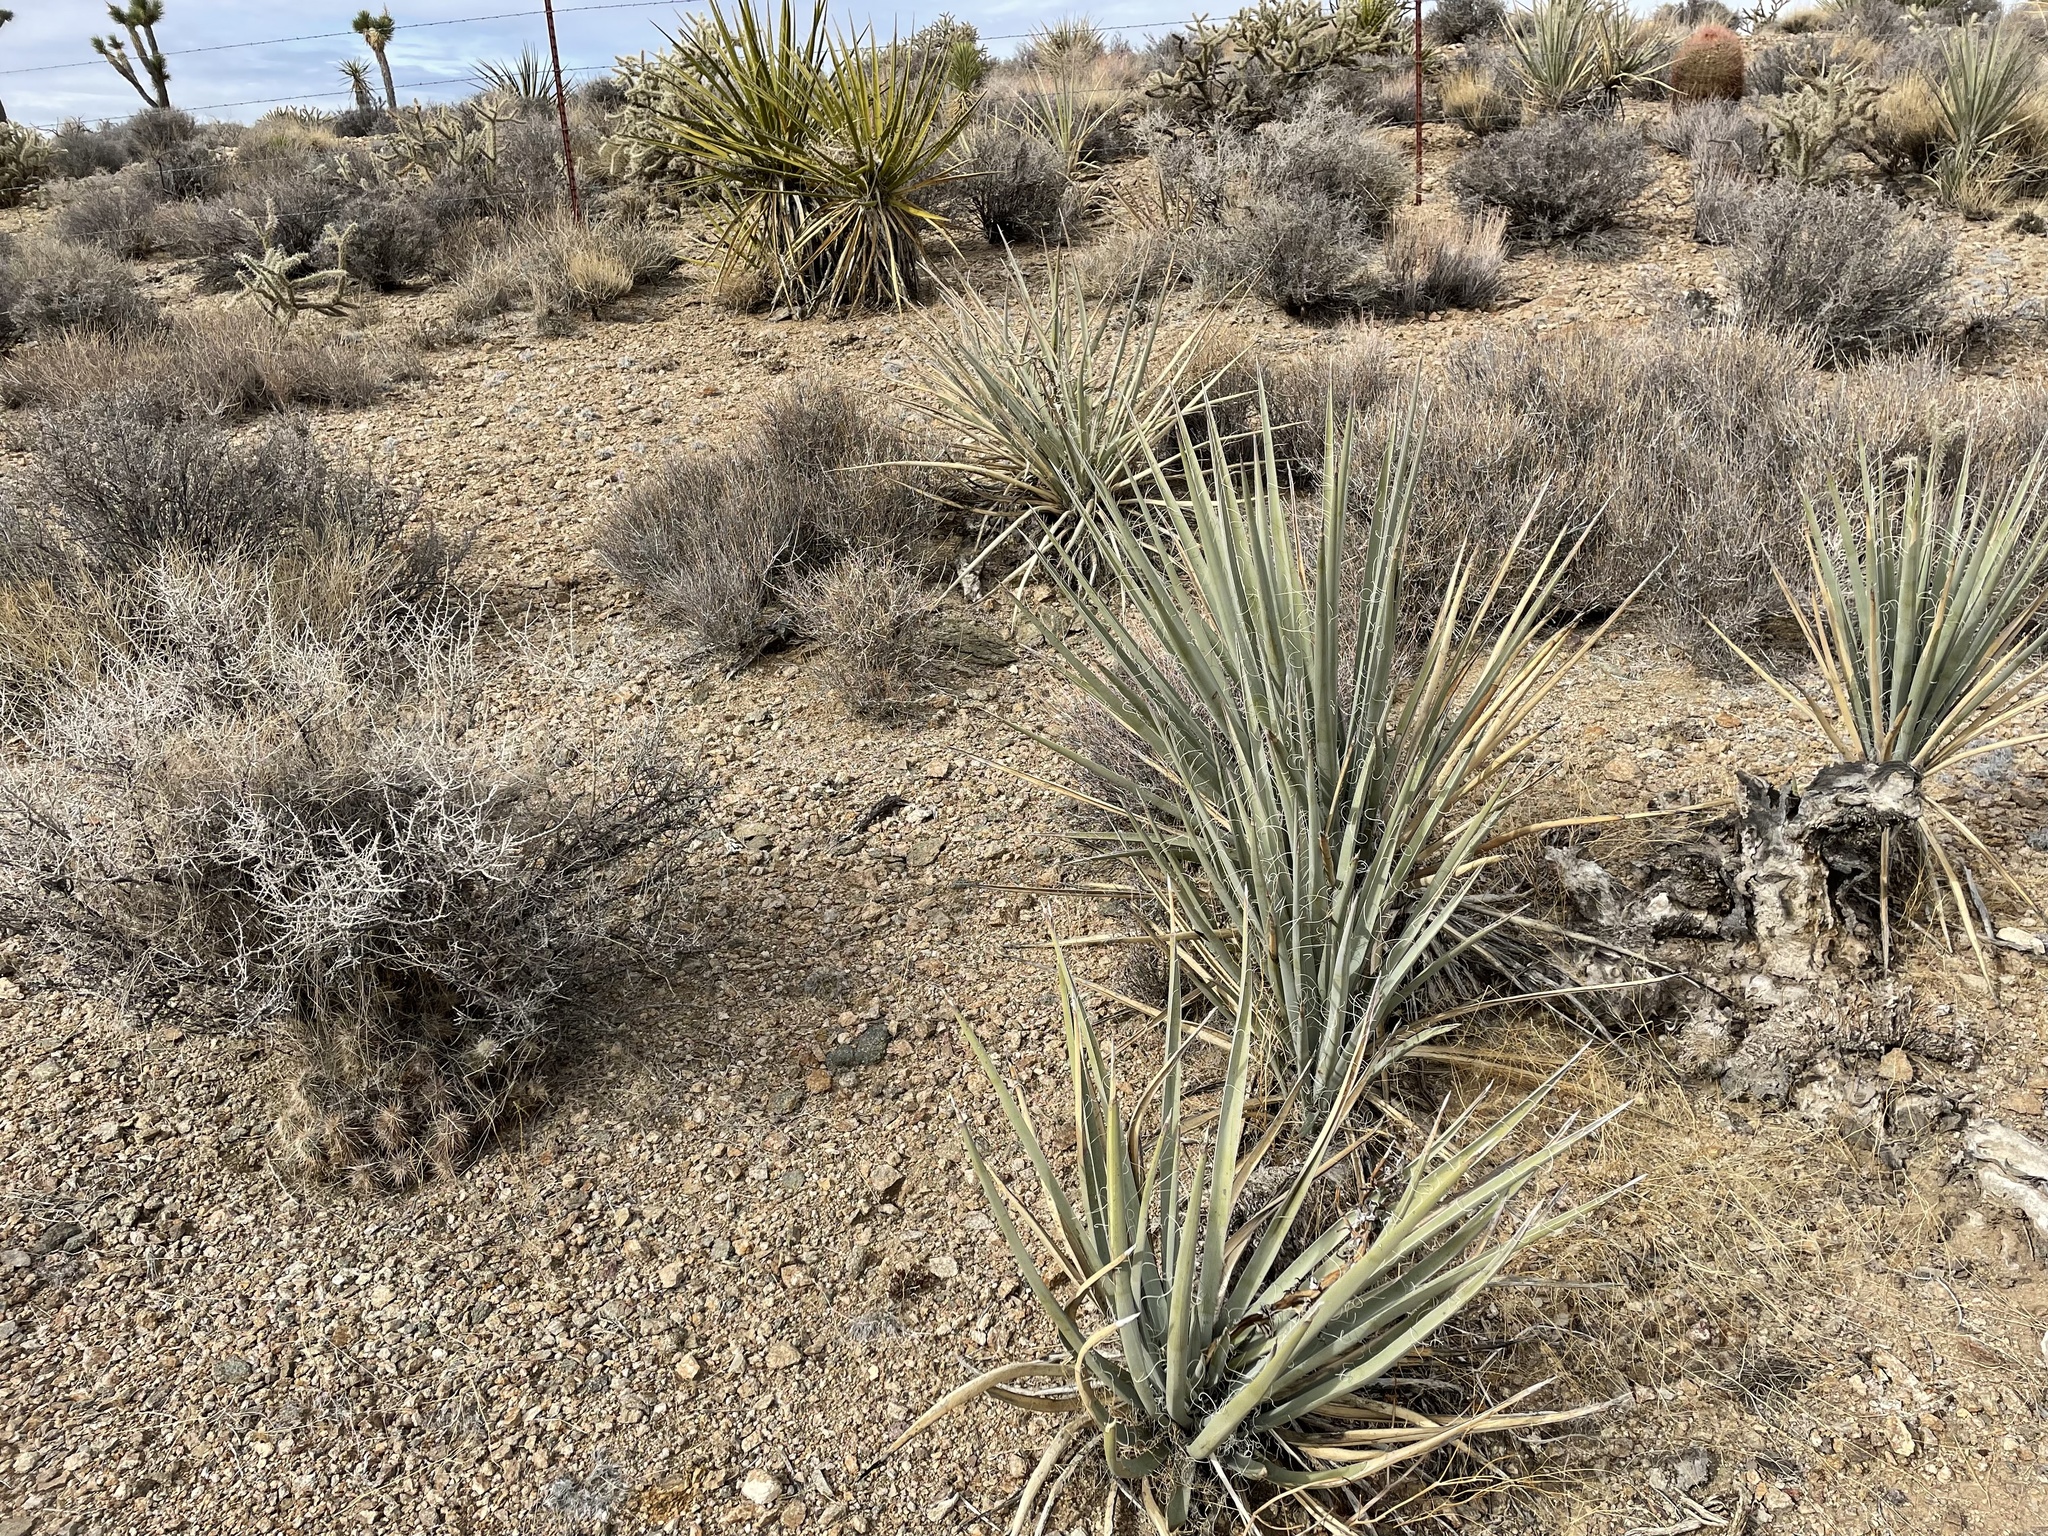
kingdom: Plantae
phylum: Tracheophyta
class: Liliopsida
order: Asparagales
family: Asparagaceae
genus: Yucca
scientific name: Yucca baccata
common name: Banana yucca
